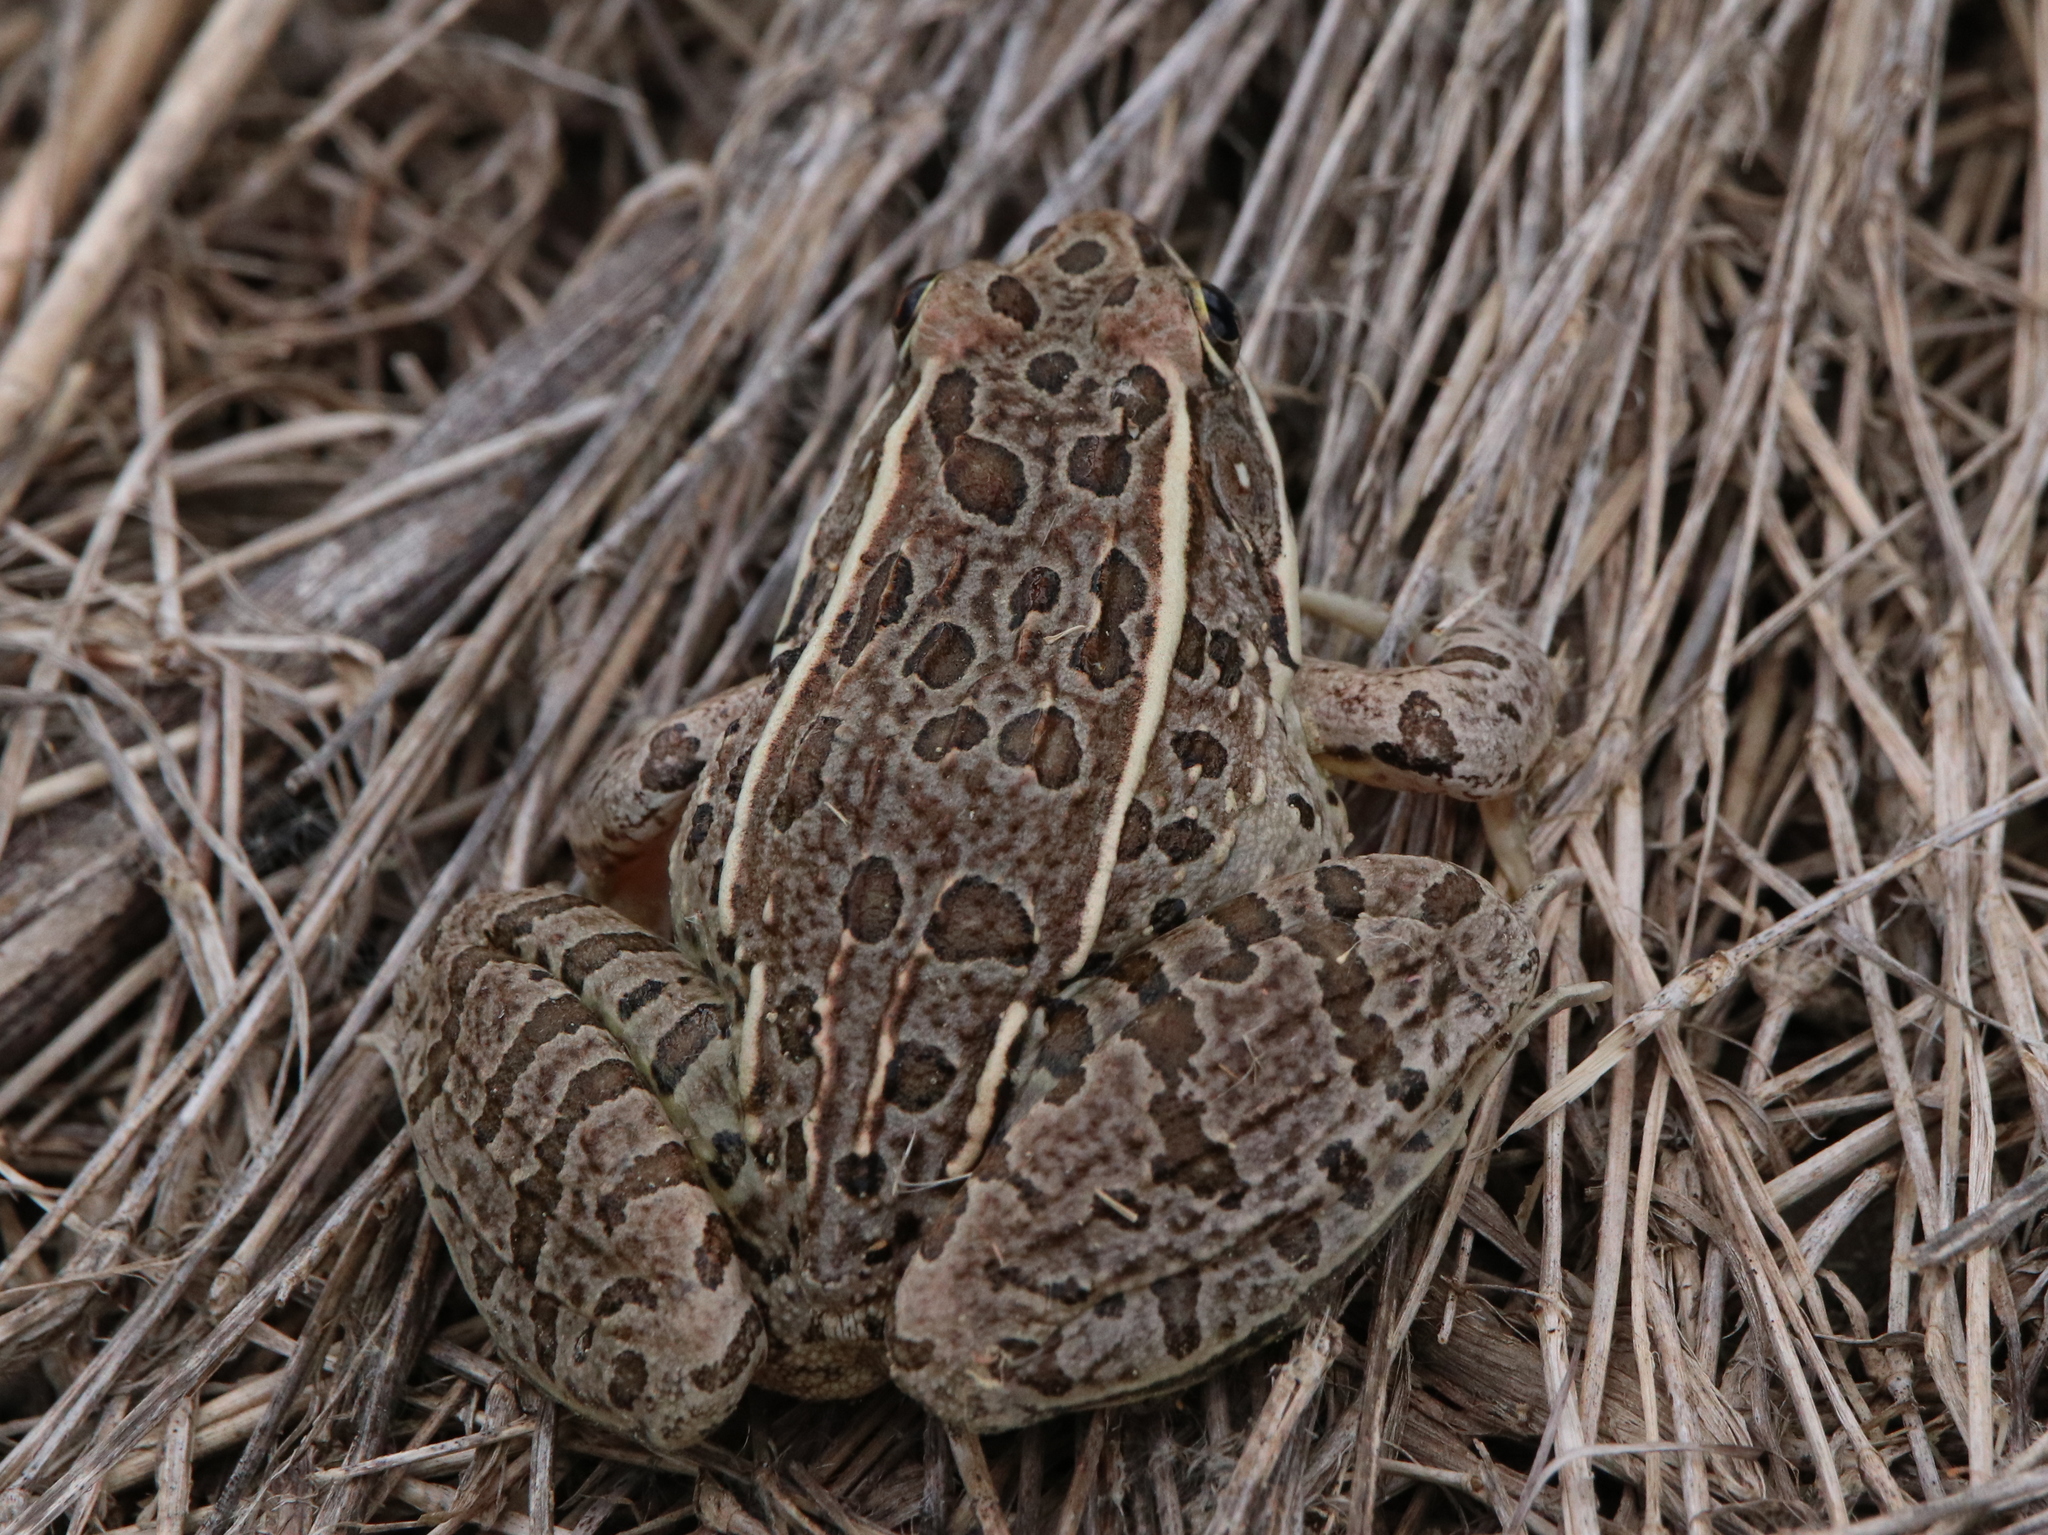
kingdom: Animalia
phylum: Chordata
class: Amphibia
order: Anura
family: Ranidae
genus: Lithobates
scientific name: Lithobates blairi
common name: Plains leopard frog
